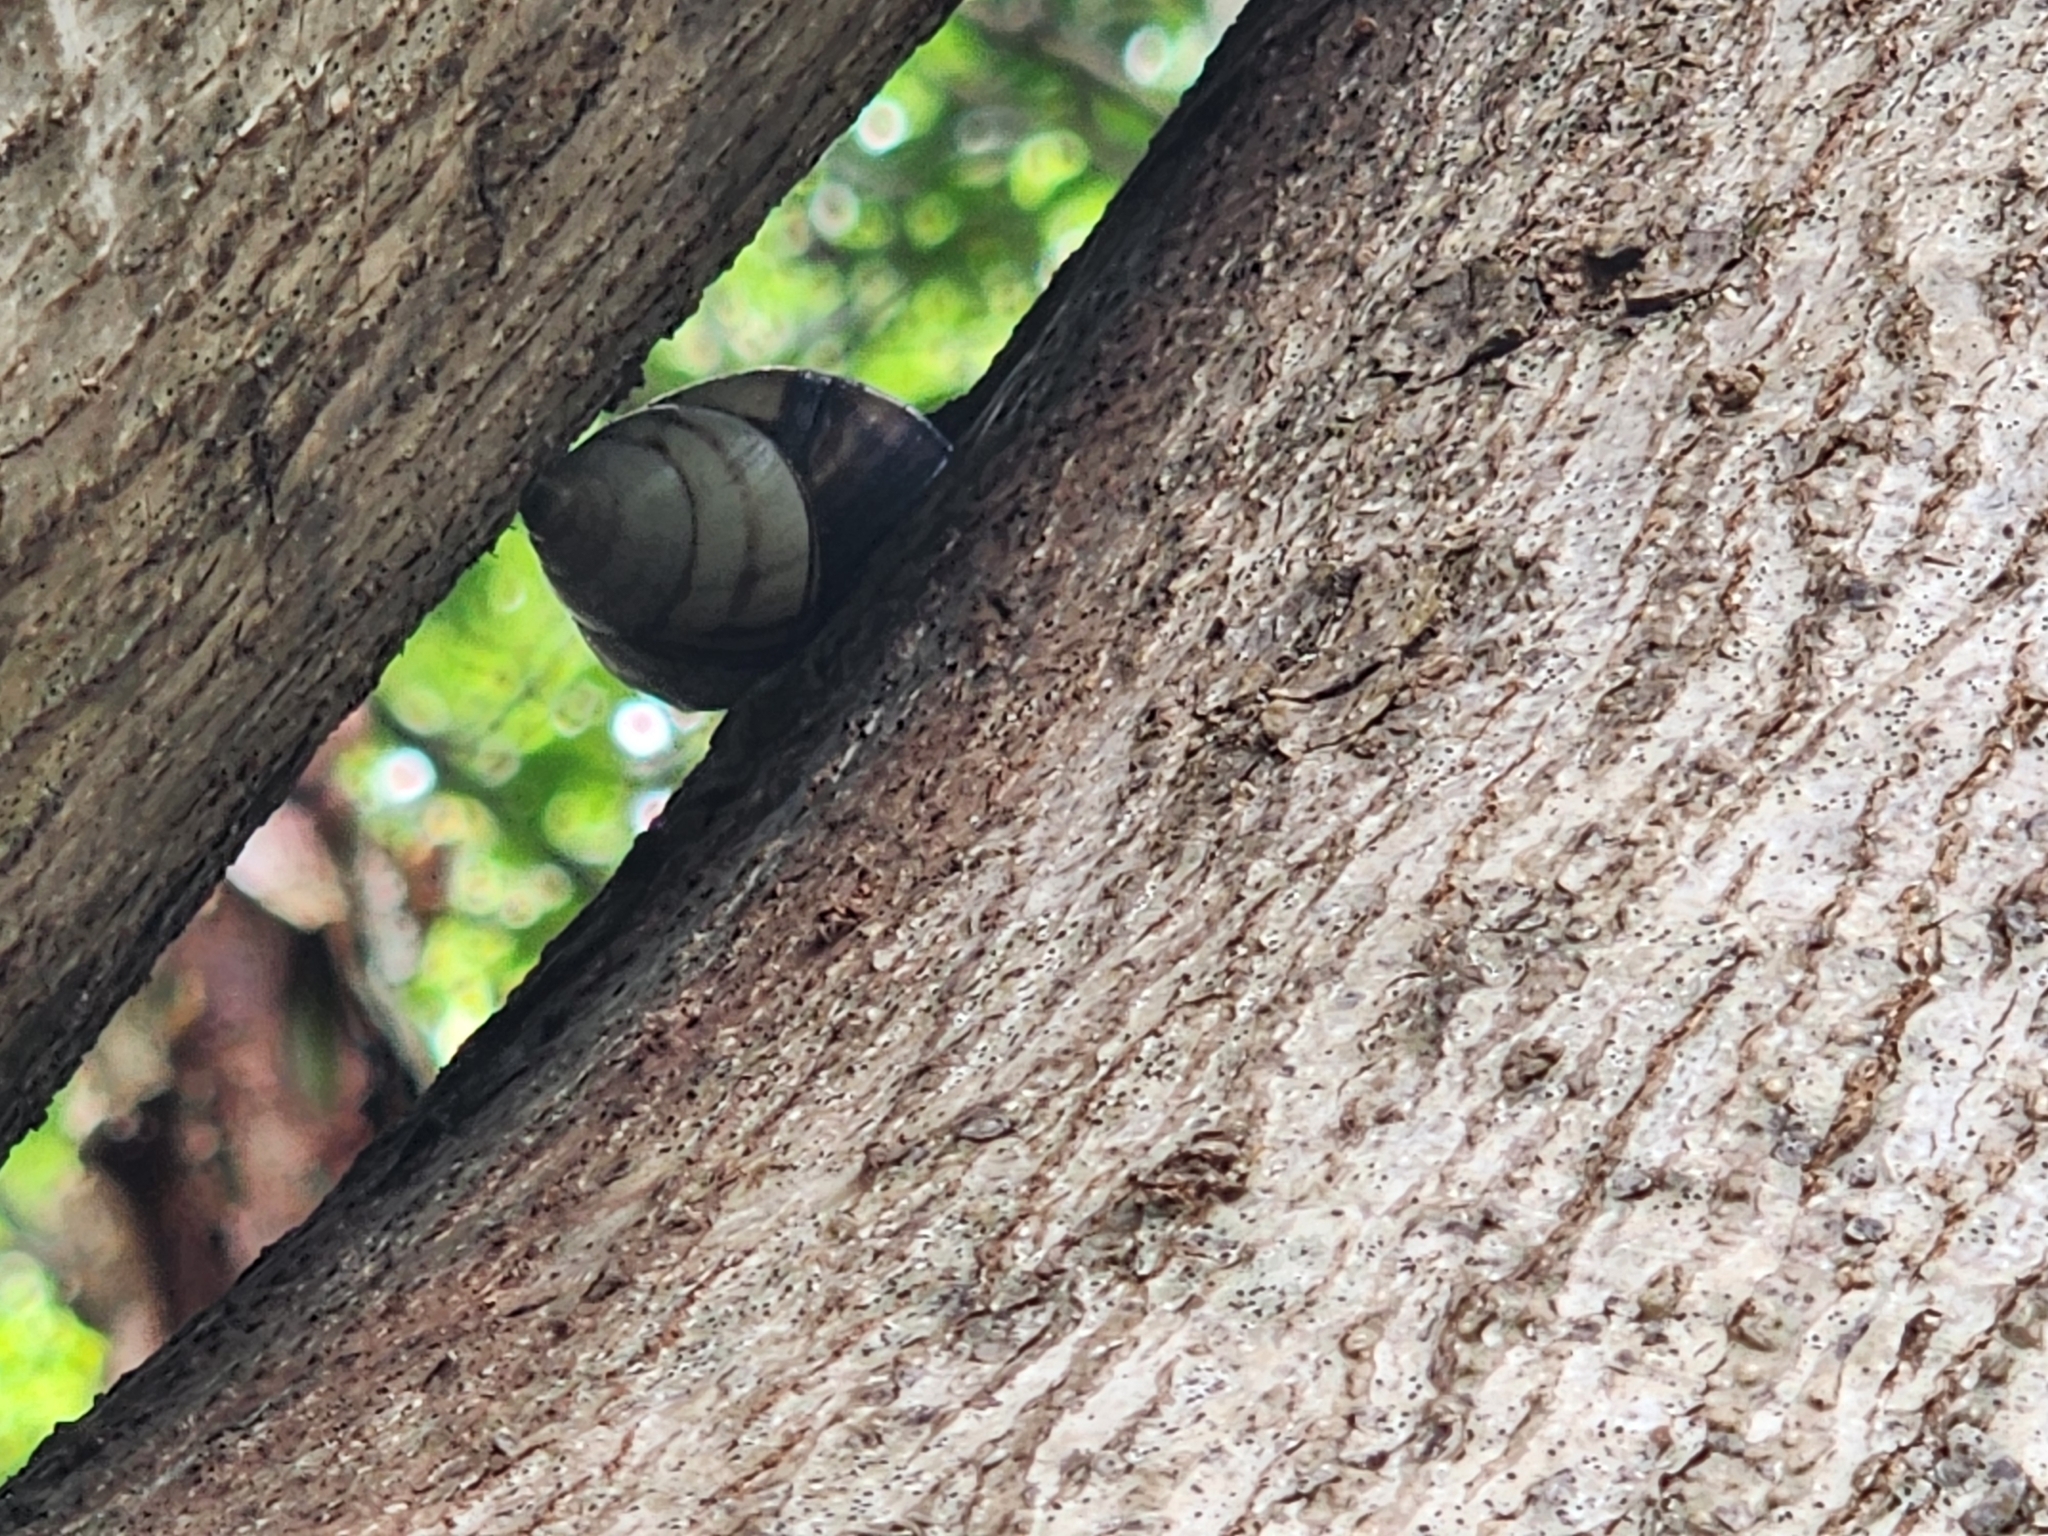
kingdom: Animalia
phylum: Mollusca
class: Gastropoda
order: Stylommatophora
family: Orthalicidae
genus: Orthalicus
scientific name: Orthalicus floridensis
